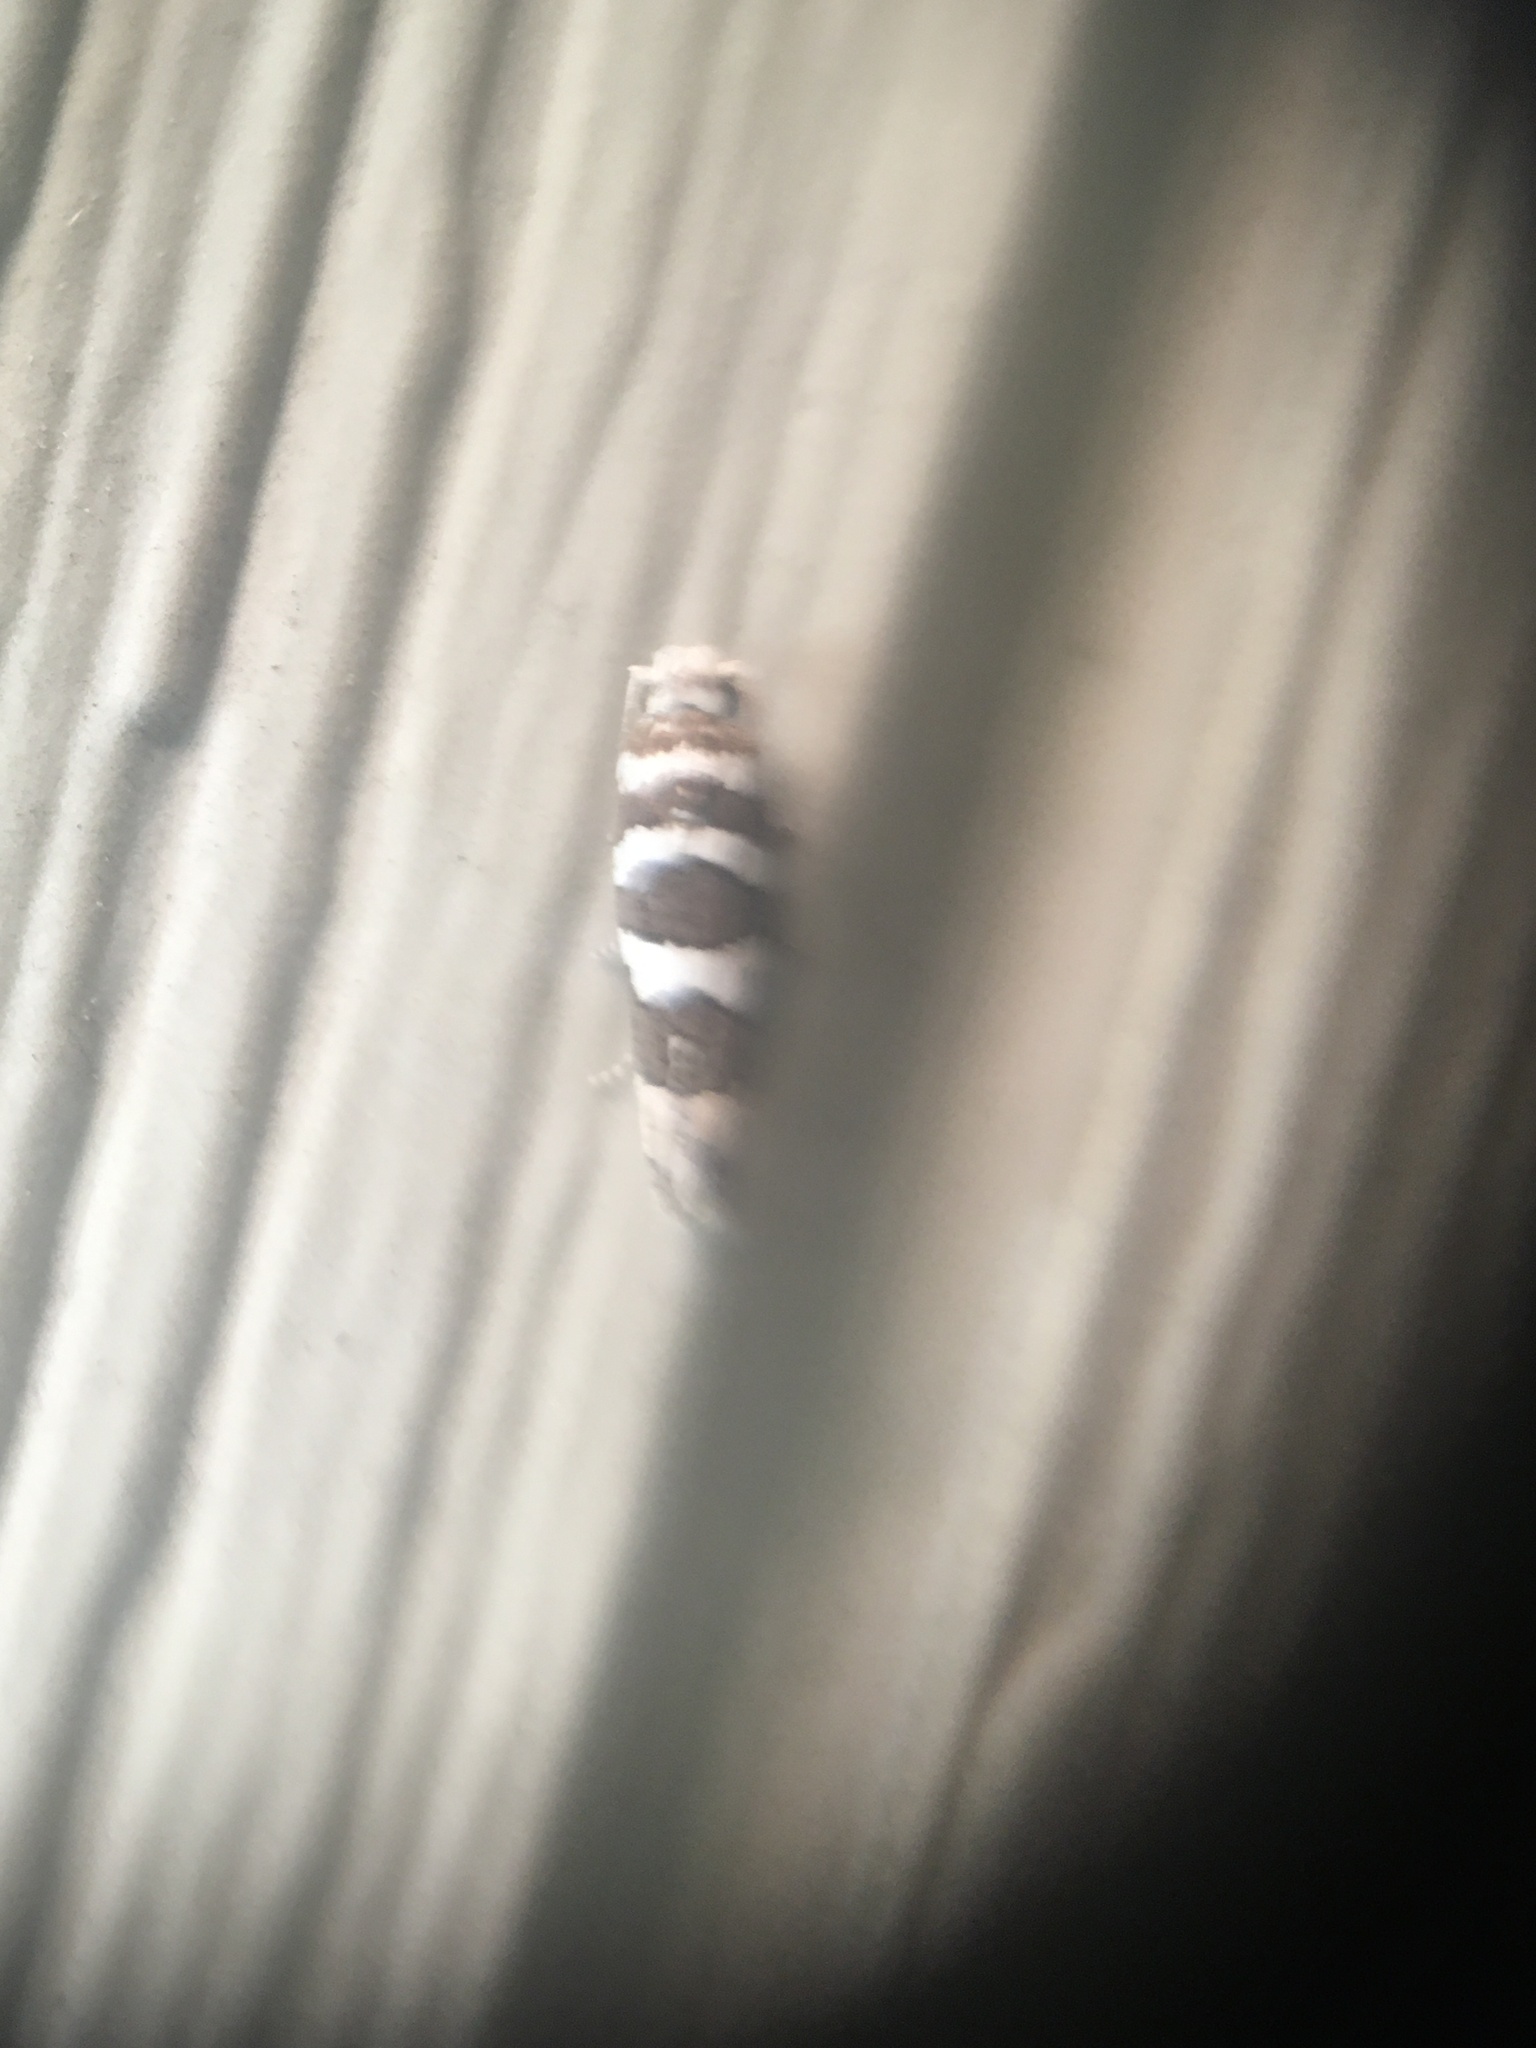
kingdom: Animalia
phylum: Arthropoda
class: Insecta
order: Lepidoptera
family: Tortricidae
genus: Pelochrista
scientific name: Pelochrista robinsonana
